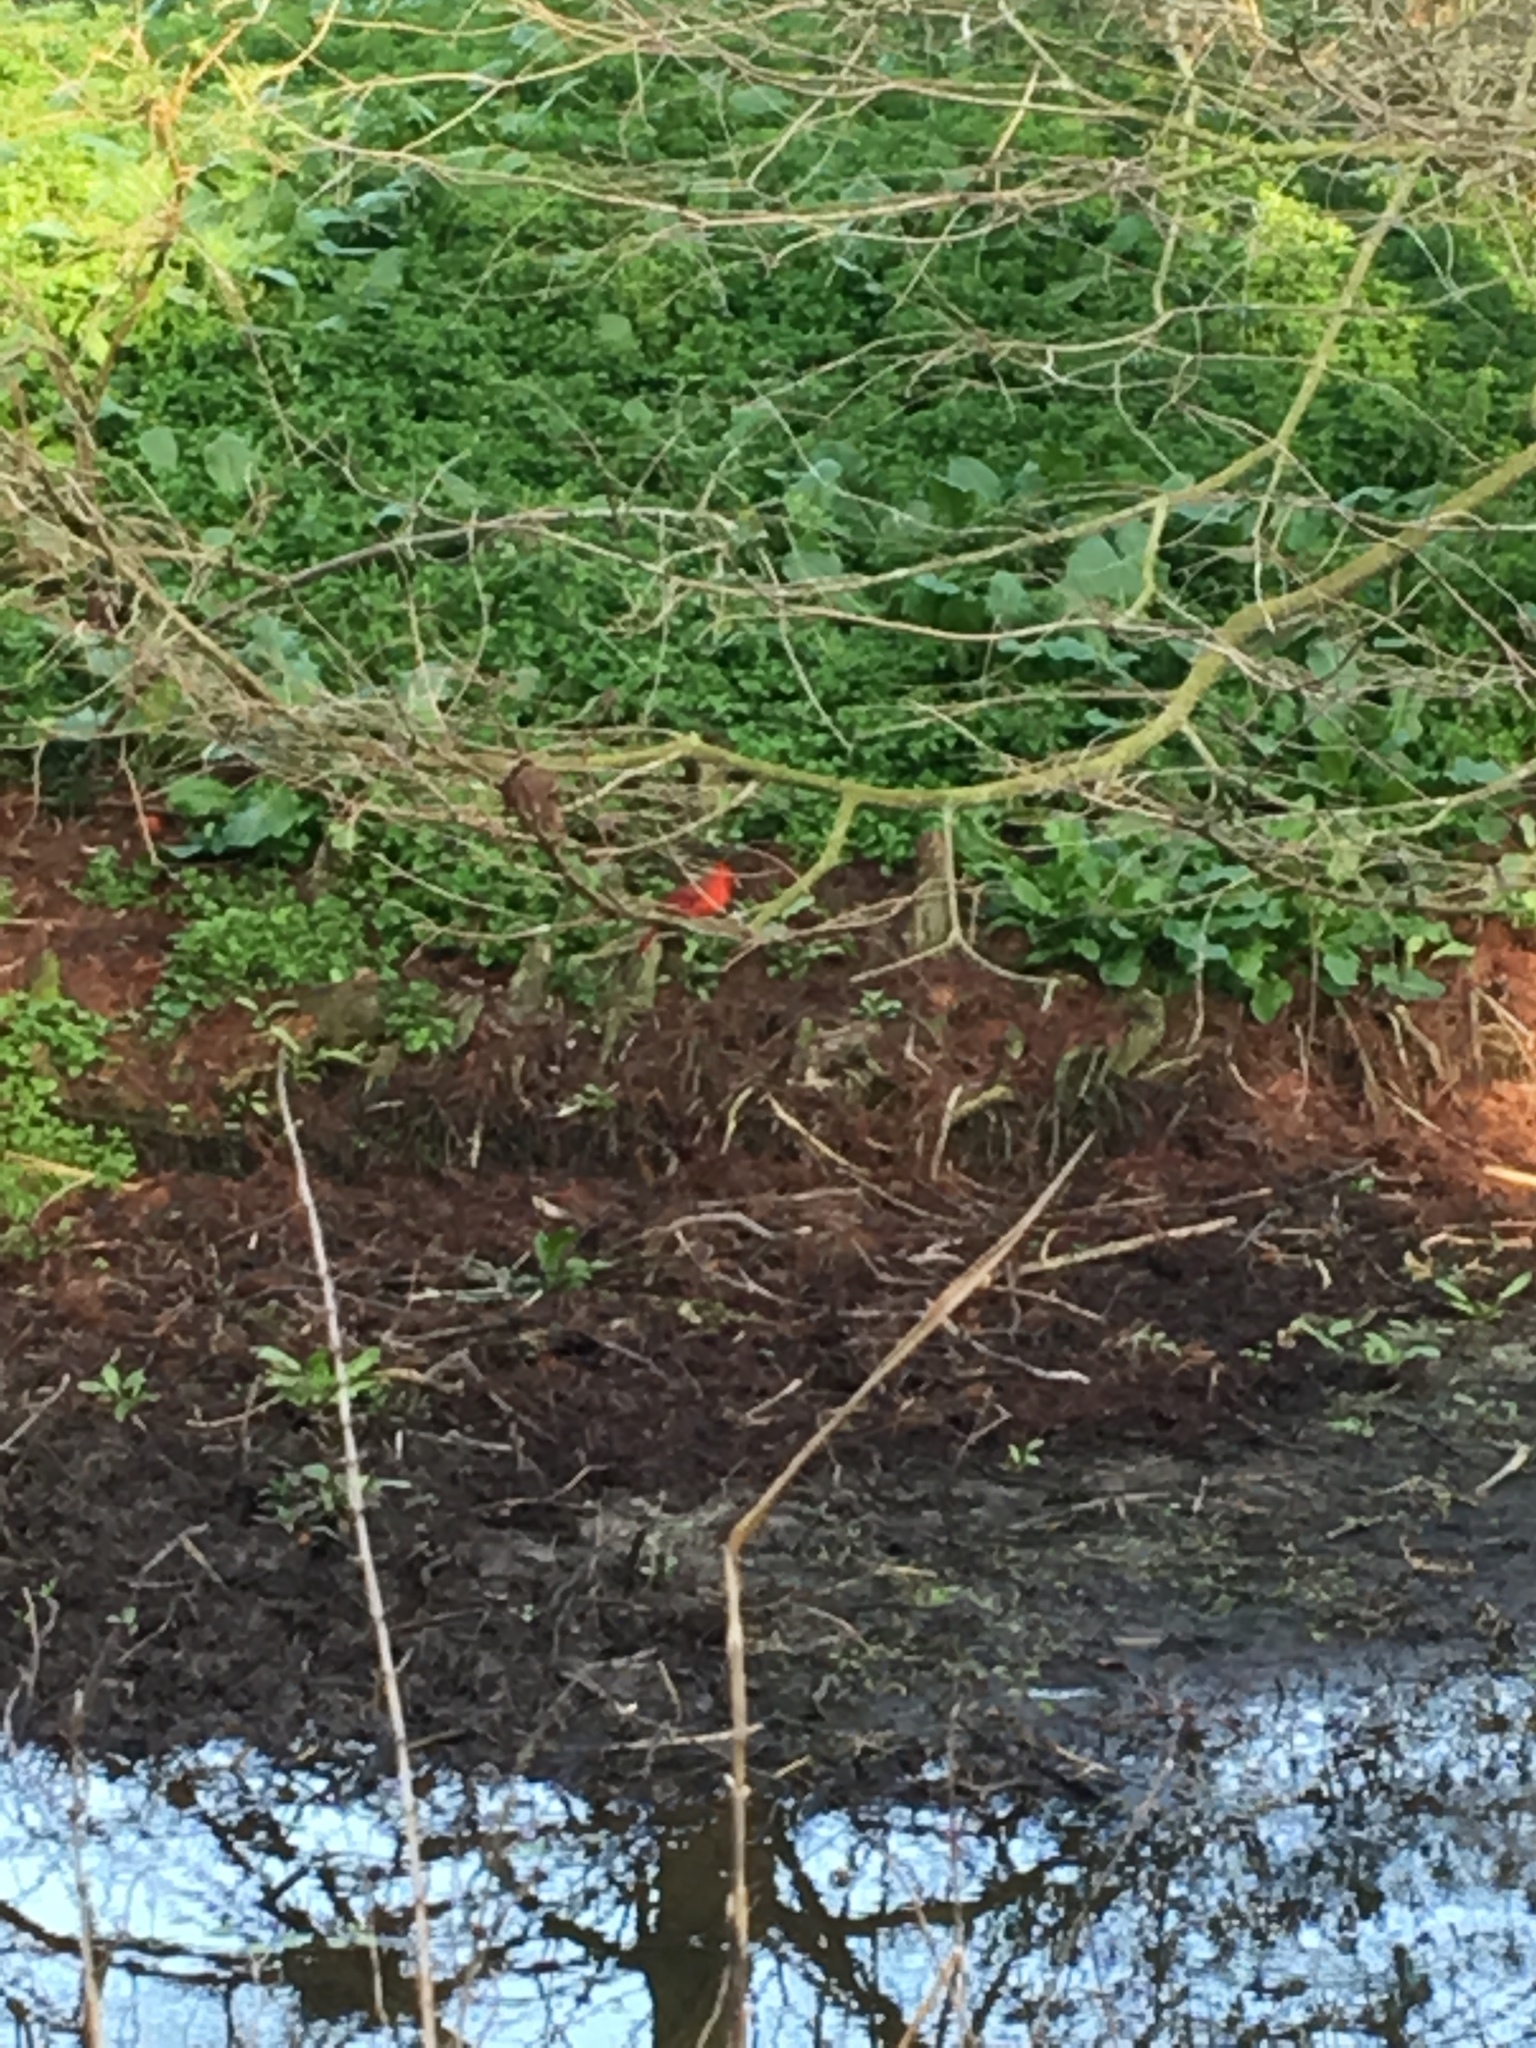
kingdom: Animalia
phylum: Chordata
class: Aves
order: Passeriformes
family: Cardinalidae
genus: Cardinalis
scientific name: Cardinalis cardinalis
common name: Northern cardinal
